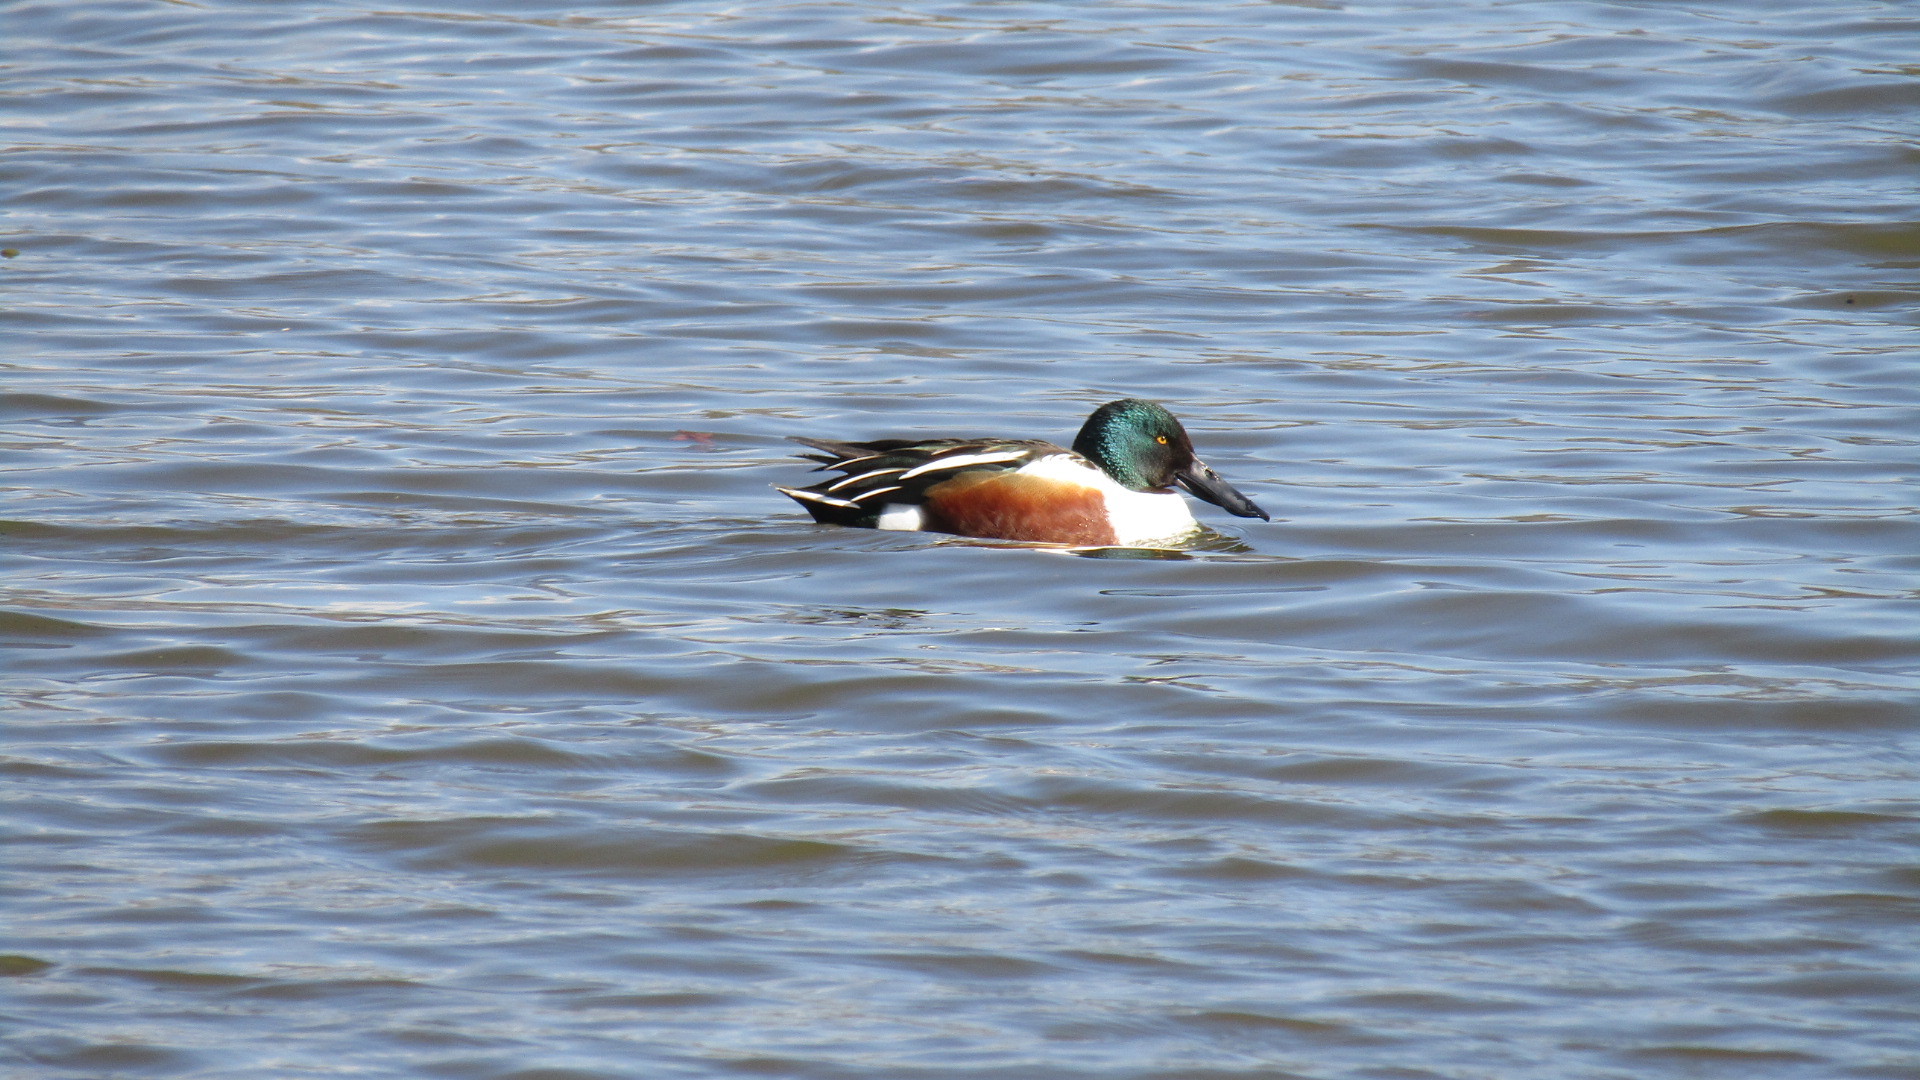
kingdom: Animalia
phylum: Chordata
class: Aves
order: Anseriformes
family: Anatidae
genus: Spatula
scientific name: Spatula clypeata
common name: Northern shoveler
